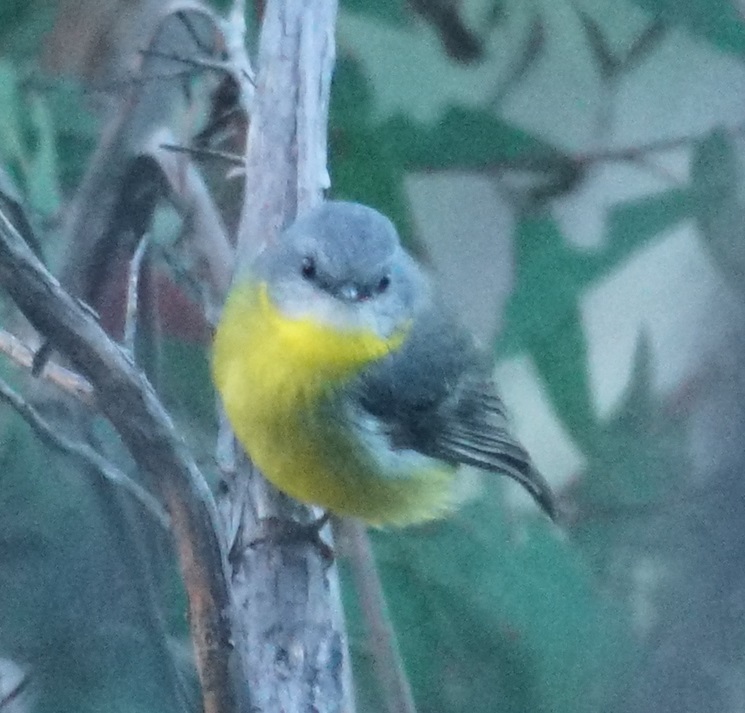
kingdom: Animalia
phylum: Chordata
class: Aves
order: Passeriformes
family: Petroicidae
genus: Eopsaltria
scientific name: Eopsaltria australis
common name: Eastern yellow robin
